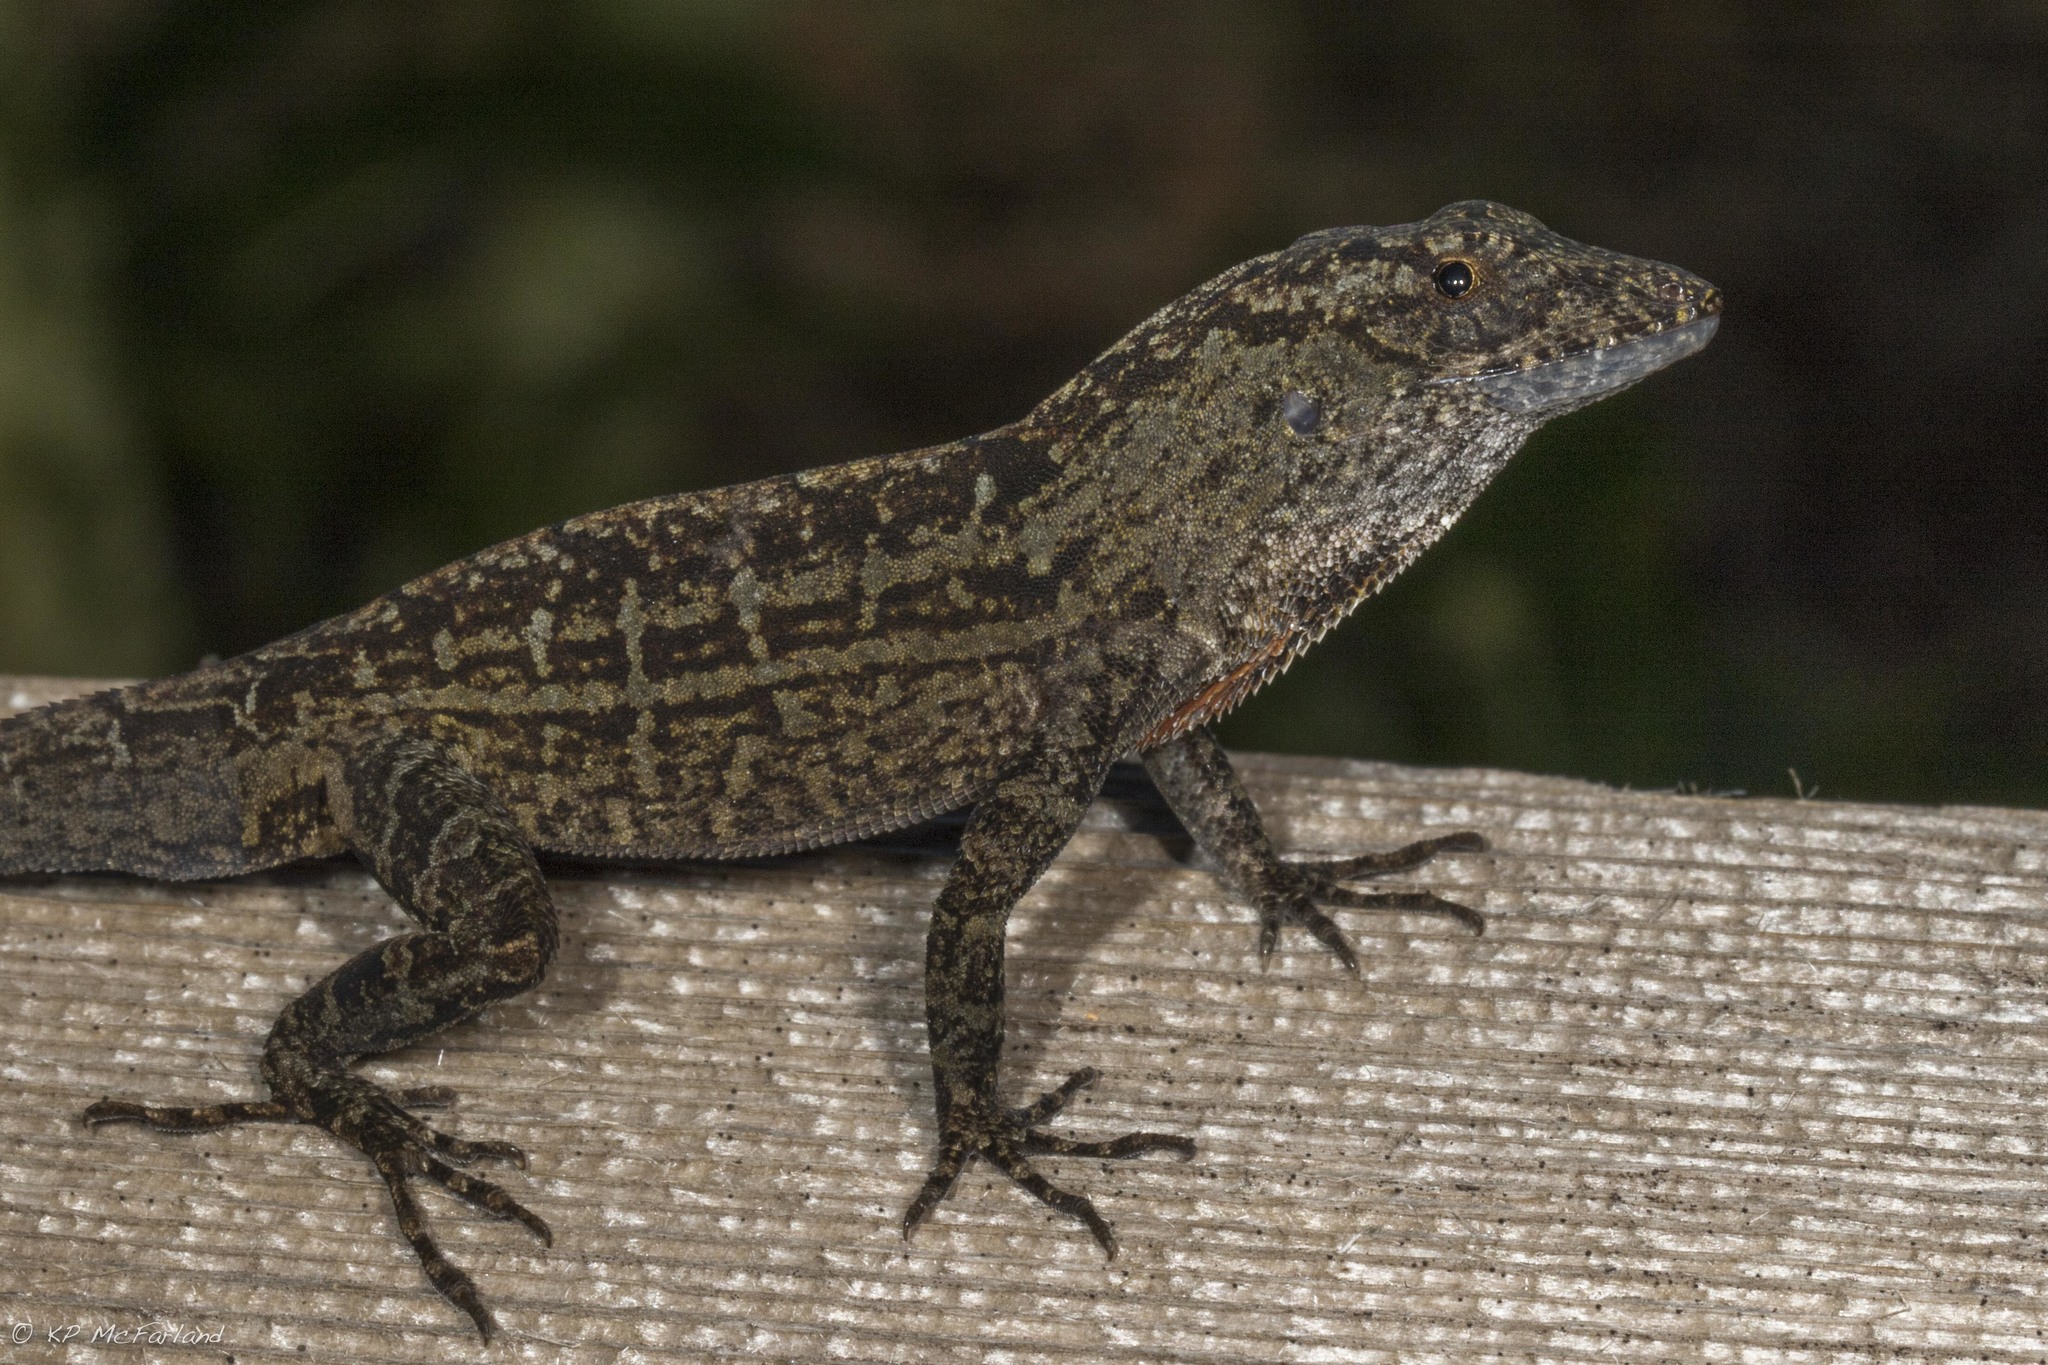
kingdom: Animalia
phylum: Chordata
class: Squamata
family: Dactyloidae
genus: Anolis
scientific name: Anolis sagrei
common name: Brown anole
